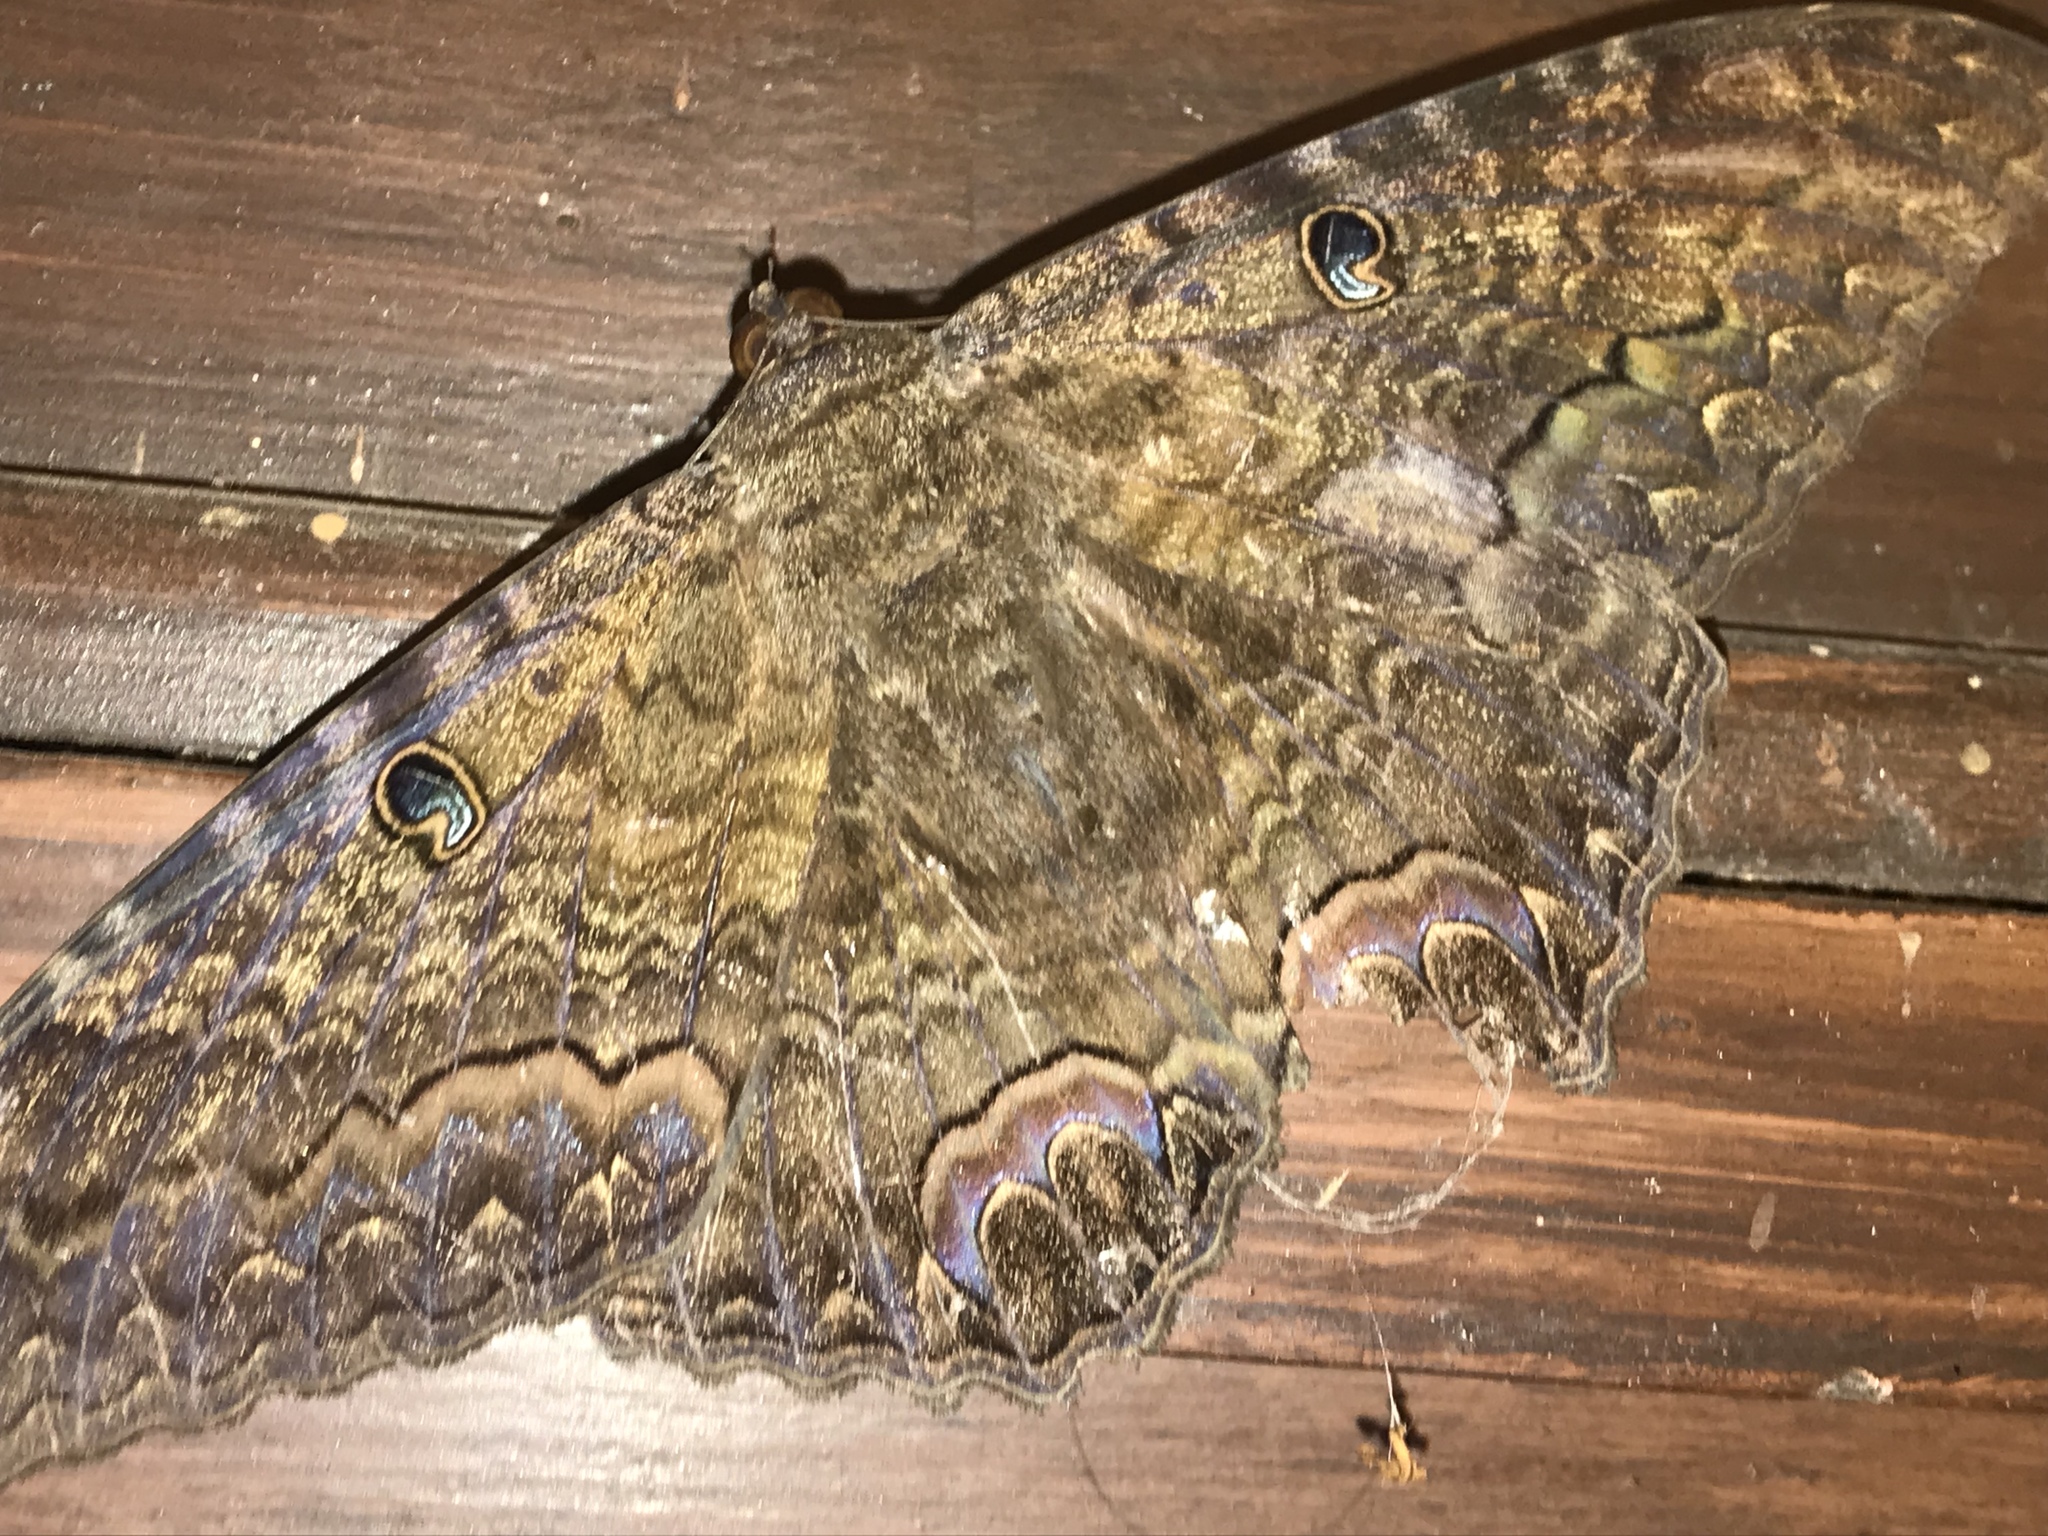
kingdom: Animalia
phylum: Arthropoda
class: Insecta
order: Lepidoptera
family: Erebidae
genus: Ascalapha
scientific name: Ascalapha odorata
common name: Black witch
